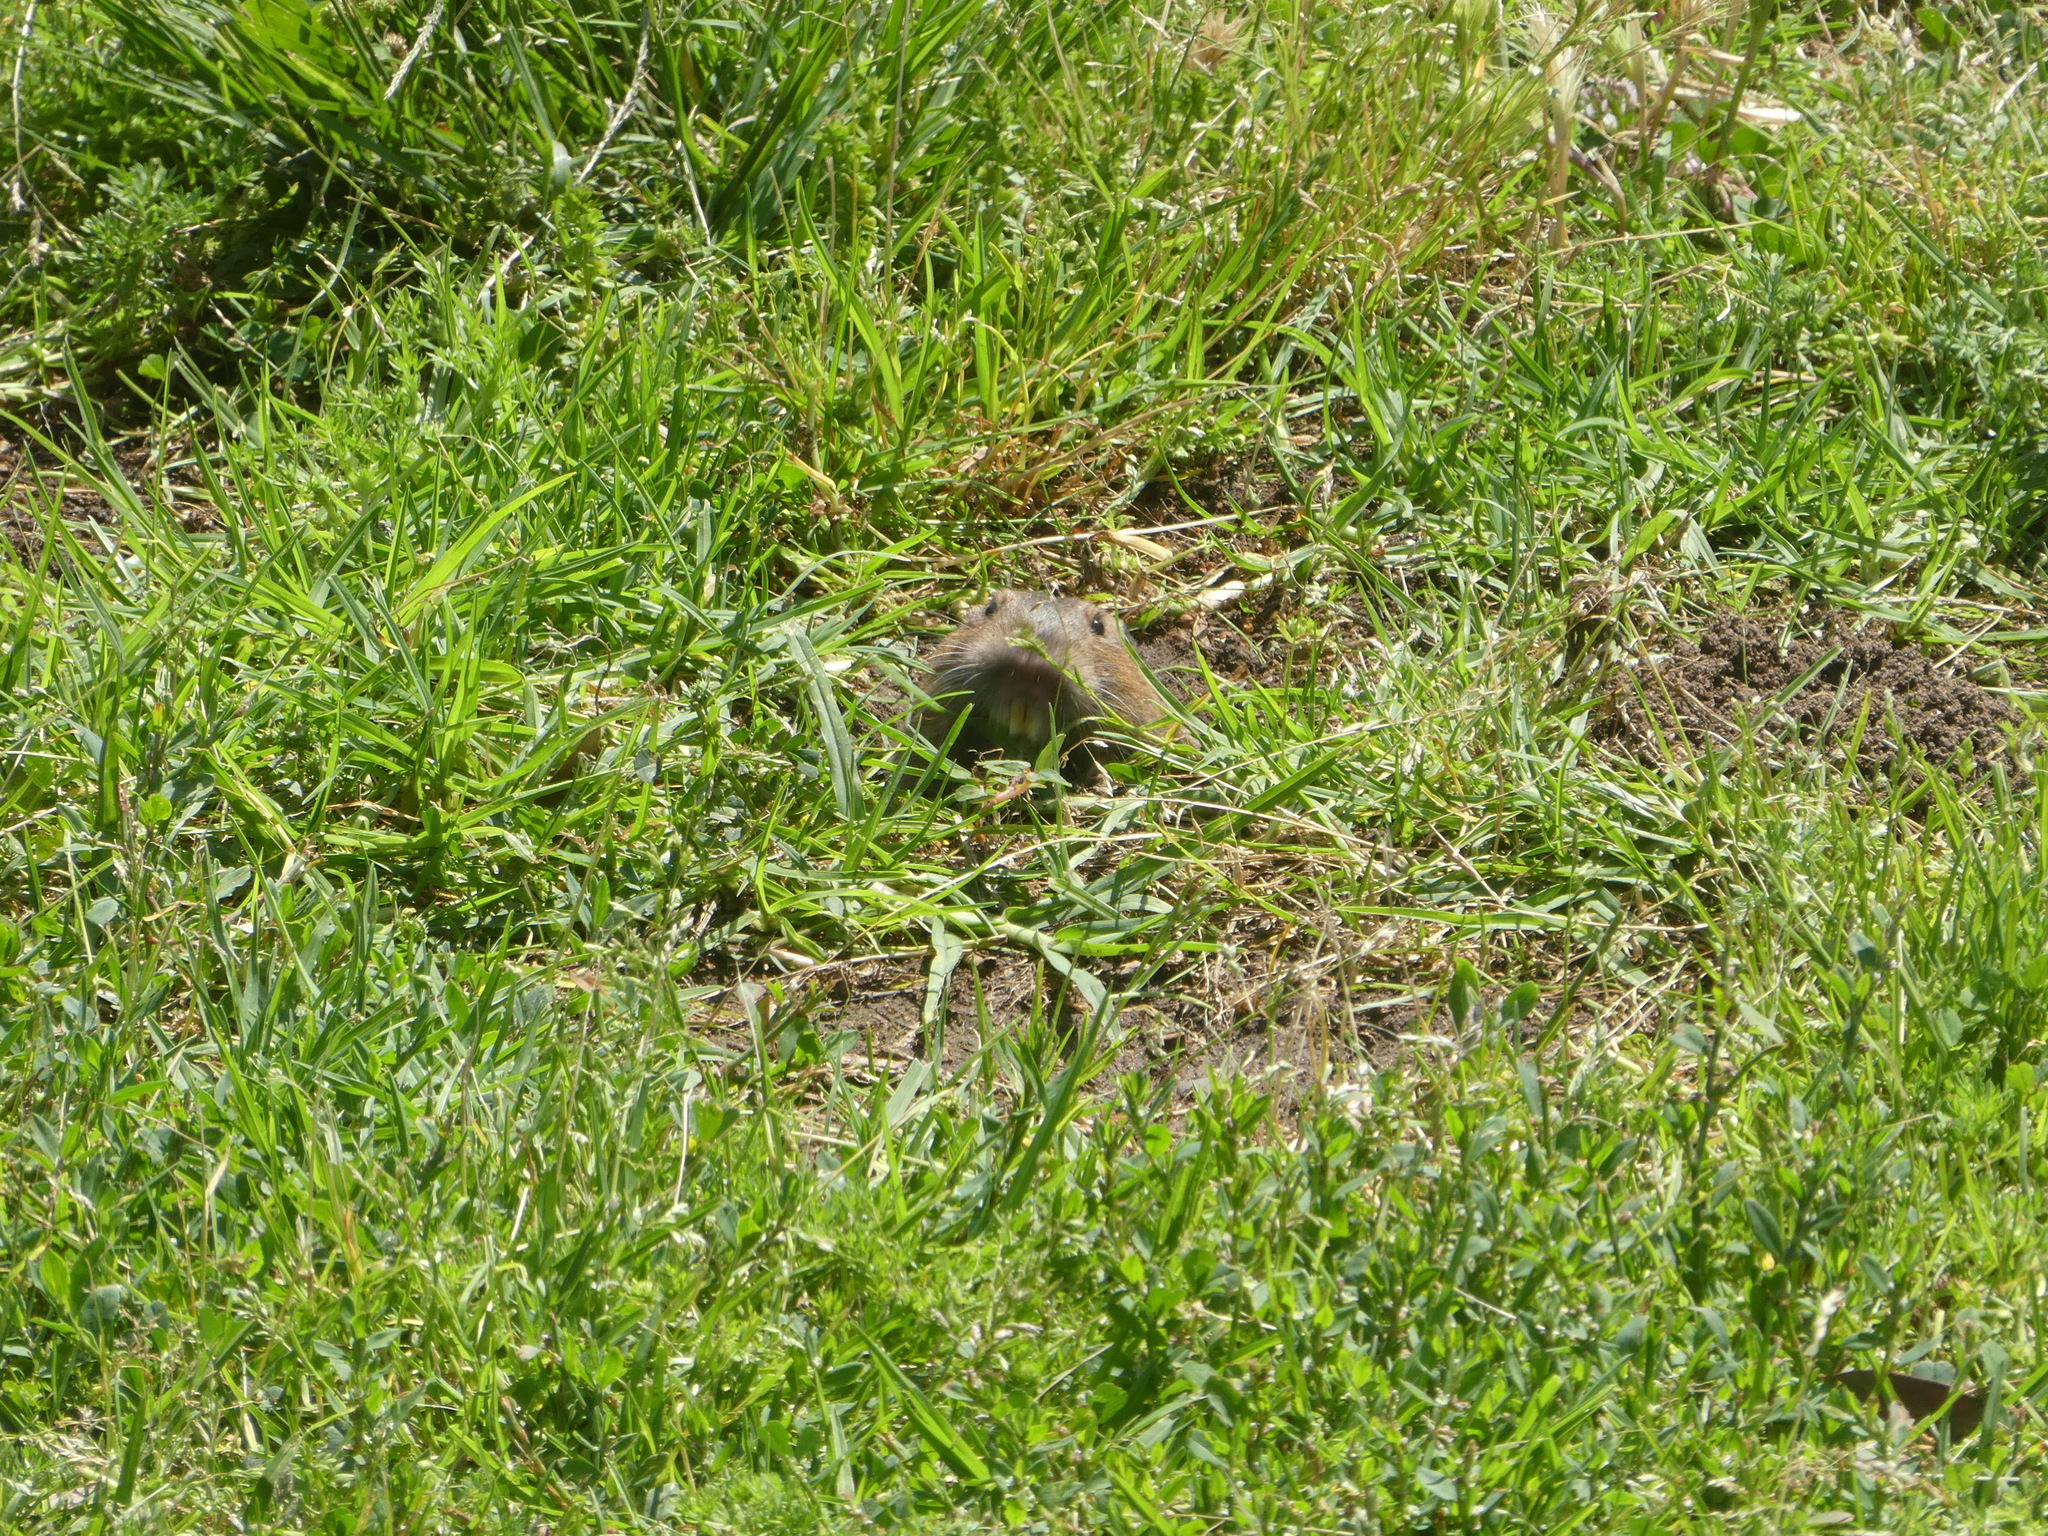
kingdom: Animalia
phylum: Chordata
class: Mammalia
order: Rodentia
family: Geomyidae
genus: Thomomys
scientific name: Thomomys bottae
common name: Botta's pocket gopher
